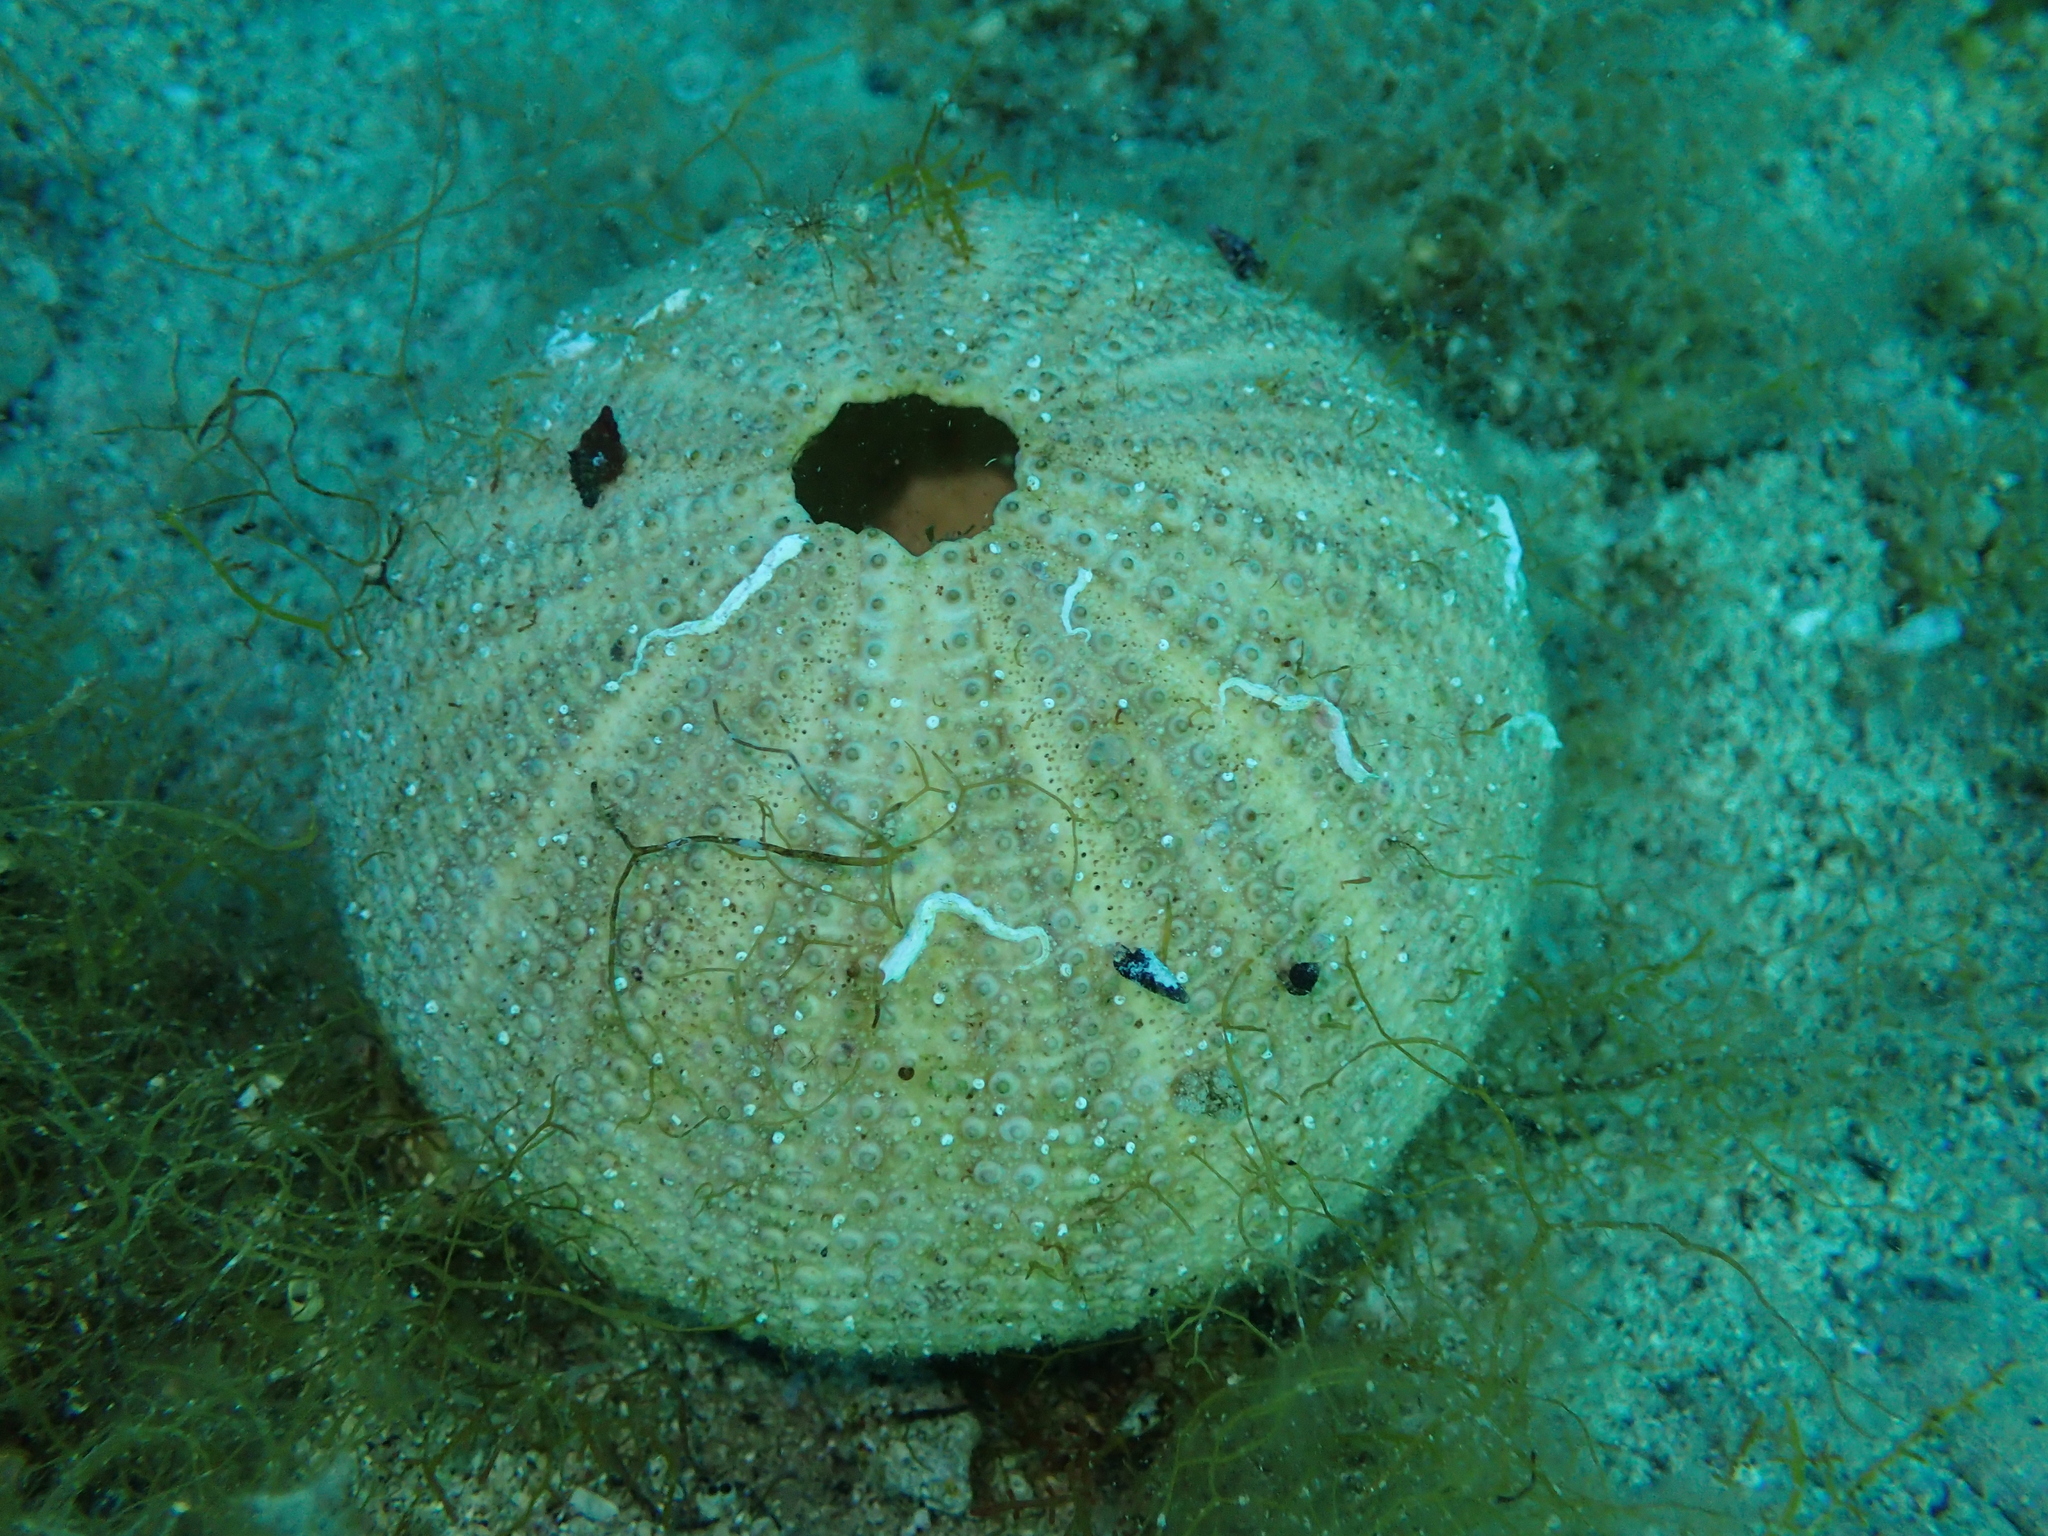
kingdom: Animalia
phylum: Echinodermata
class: Echinoidea
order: Camarodonta
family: Toxopneustidae
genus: Sphaerechinus
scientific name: Sphaerechinus granularis
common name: Violet sea urchin
